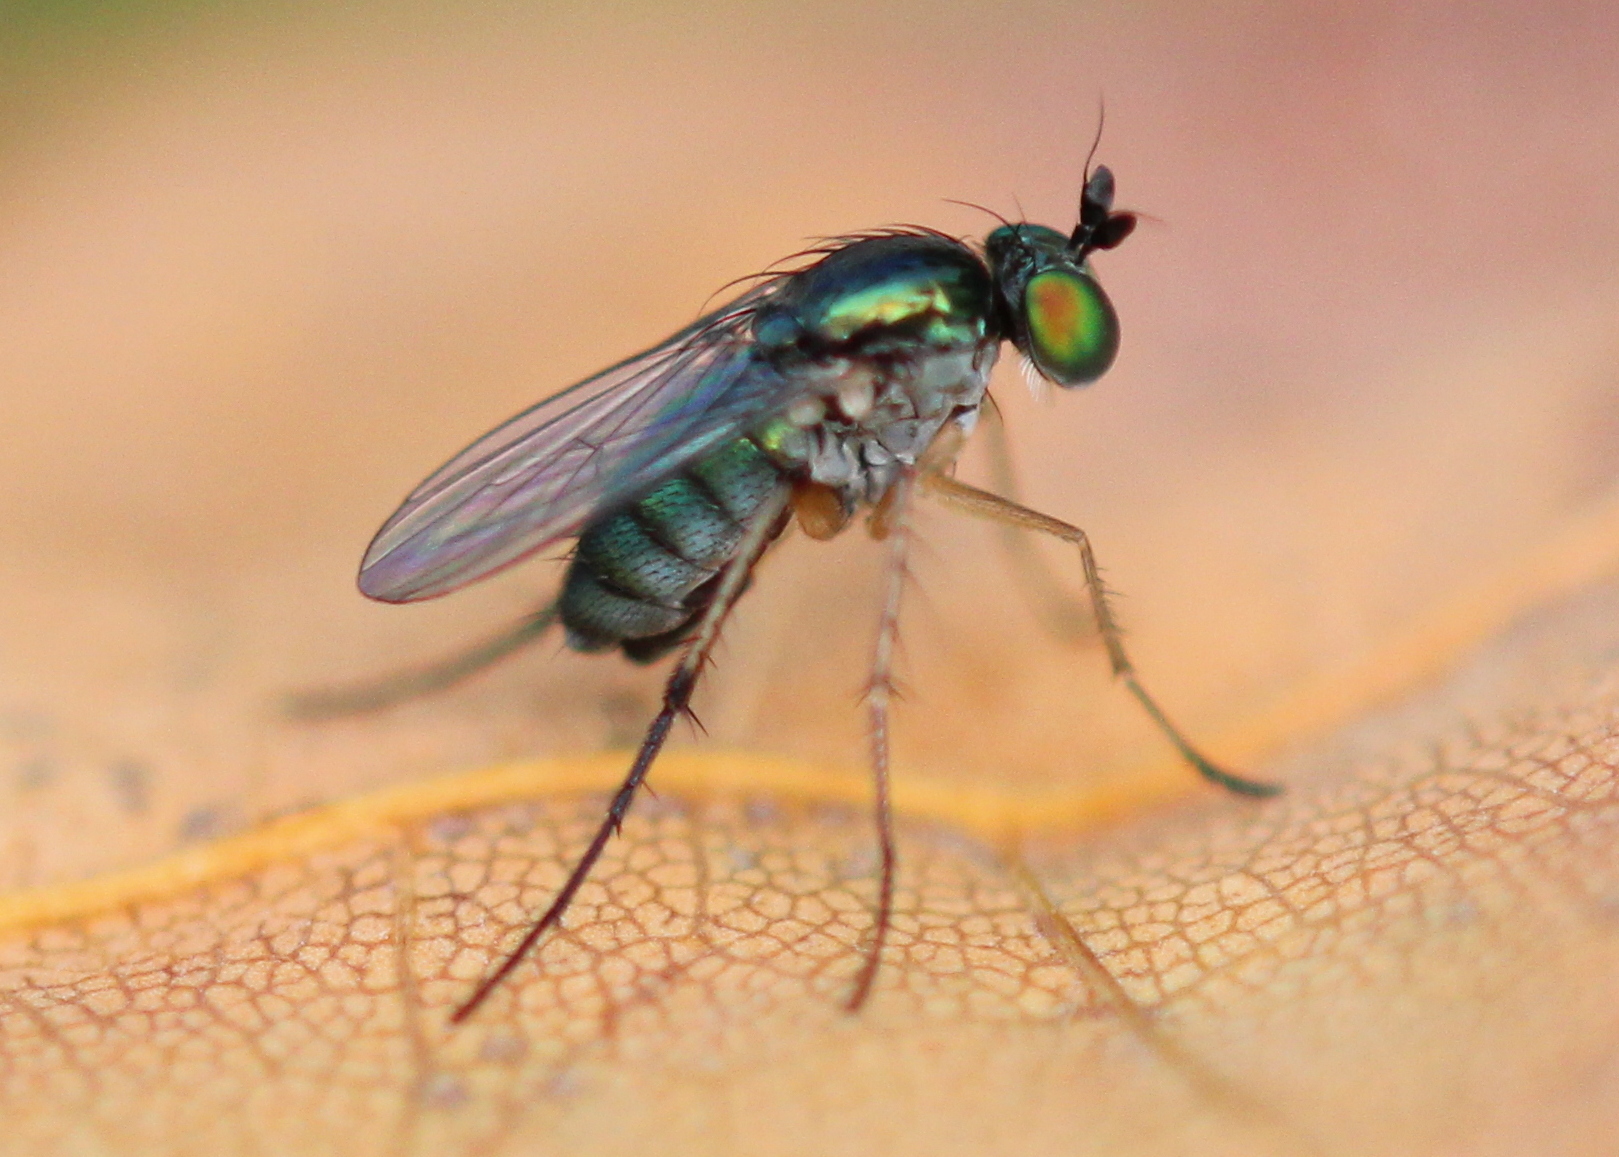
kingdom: Animalia
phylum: Arthropoda
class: Insecta
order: Diptera
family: Dolichopodidae
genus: Dolichopus
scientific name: Dolichopus comatus
